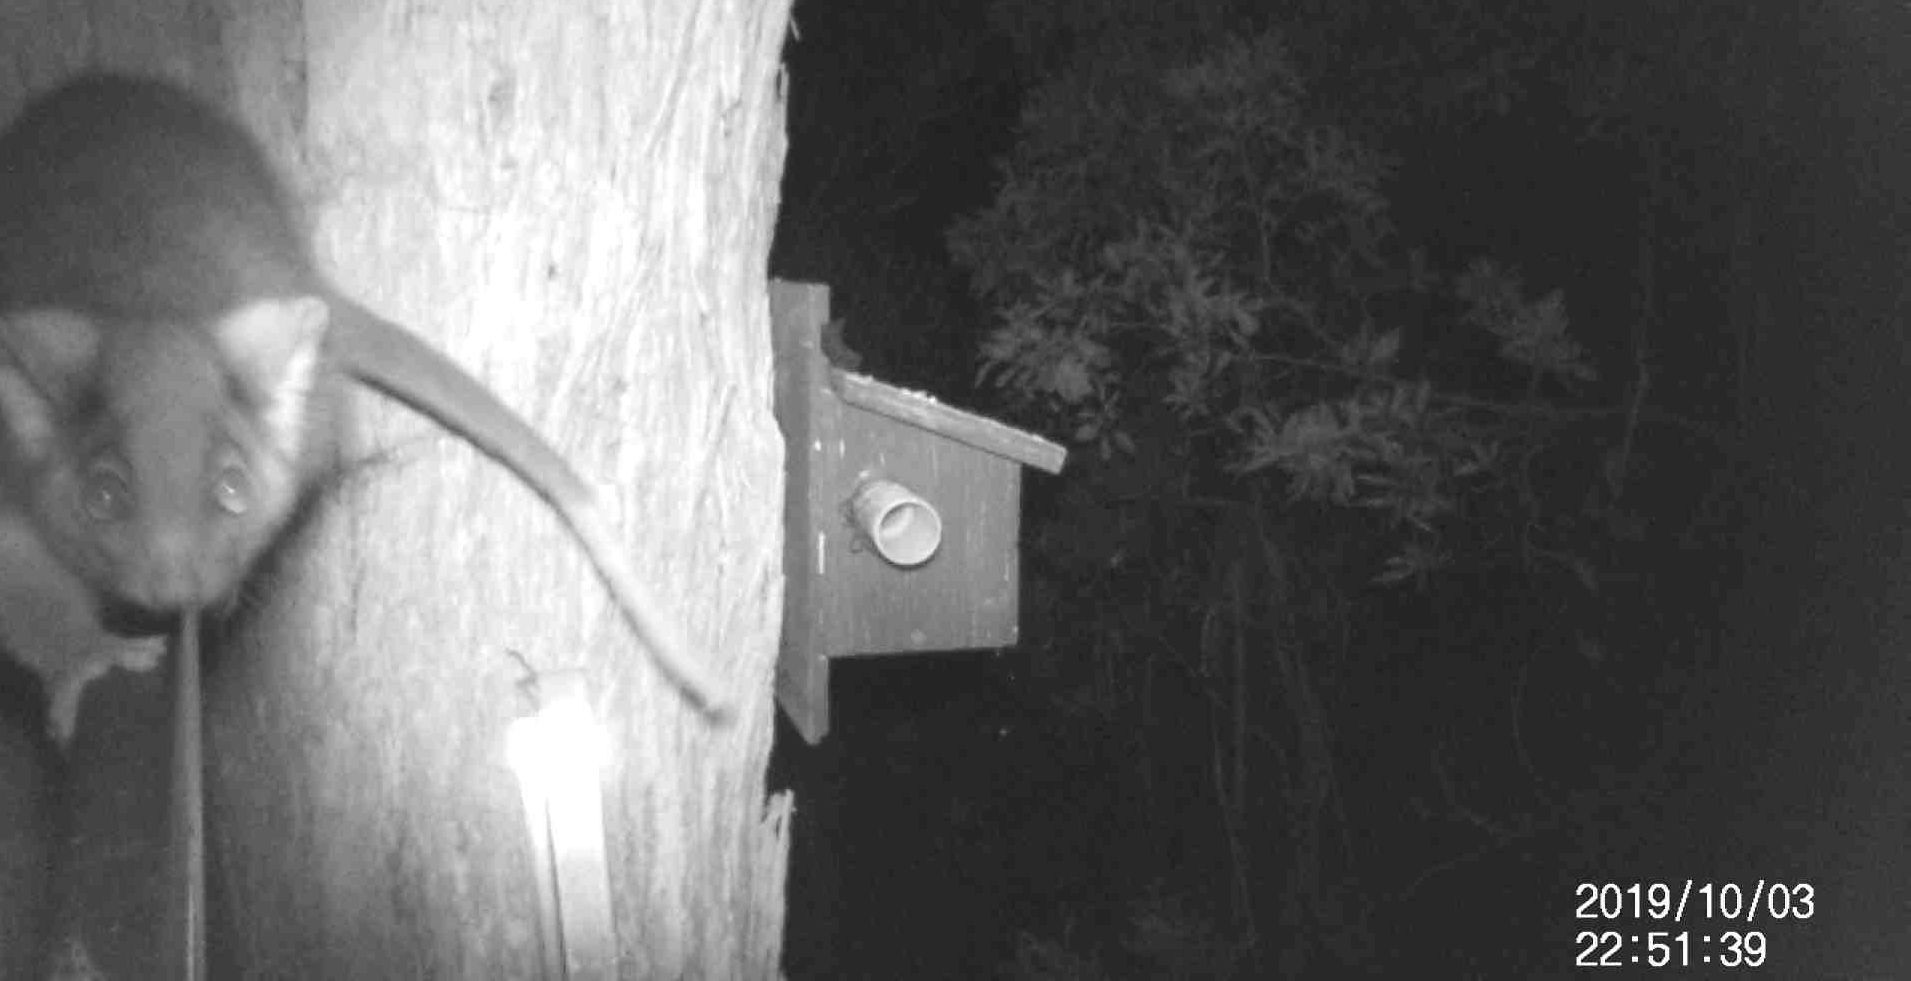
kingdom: Animalia
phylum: Chordata
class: Mammalia
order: Diprotodontia
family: Pseudocheiridae
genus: Pseudocheirus
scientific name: Pseudocheirus peregrinus
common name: Common ringtail possum
